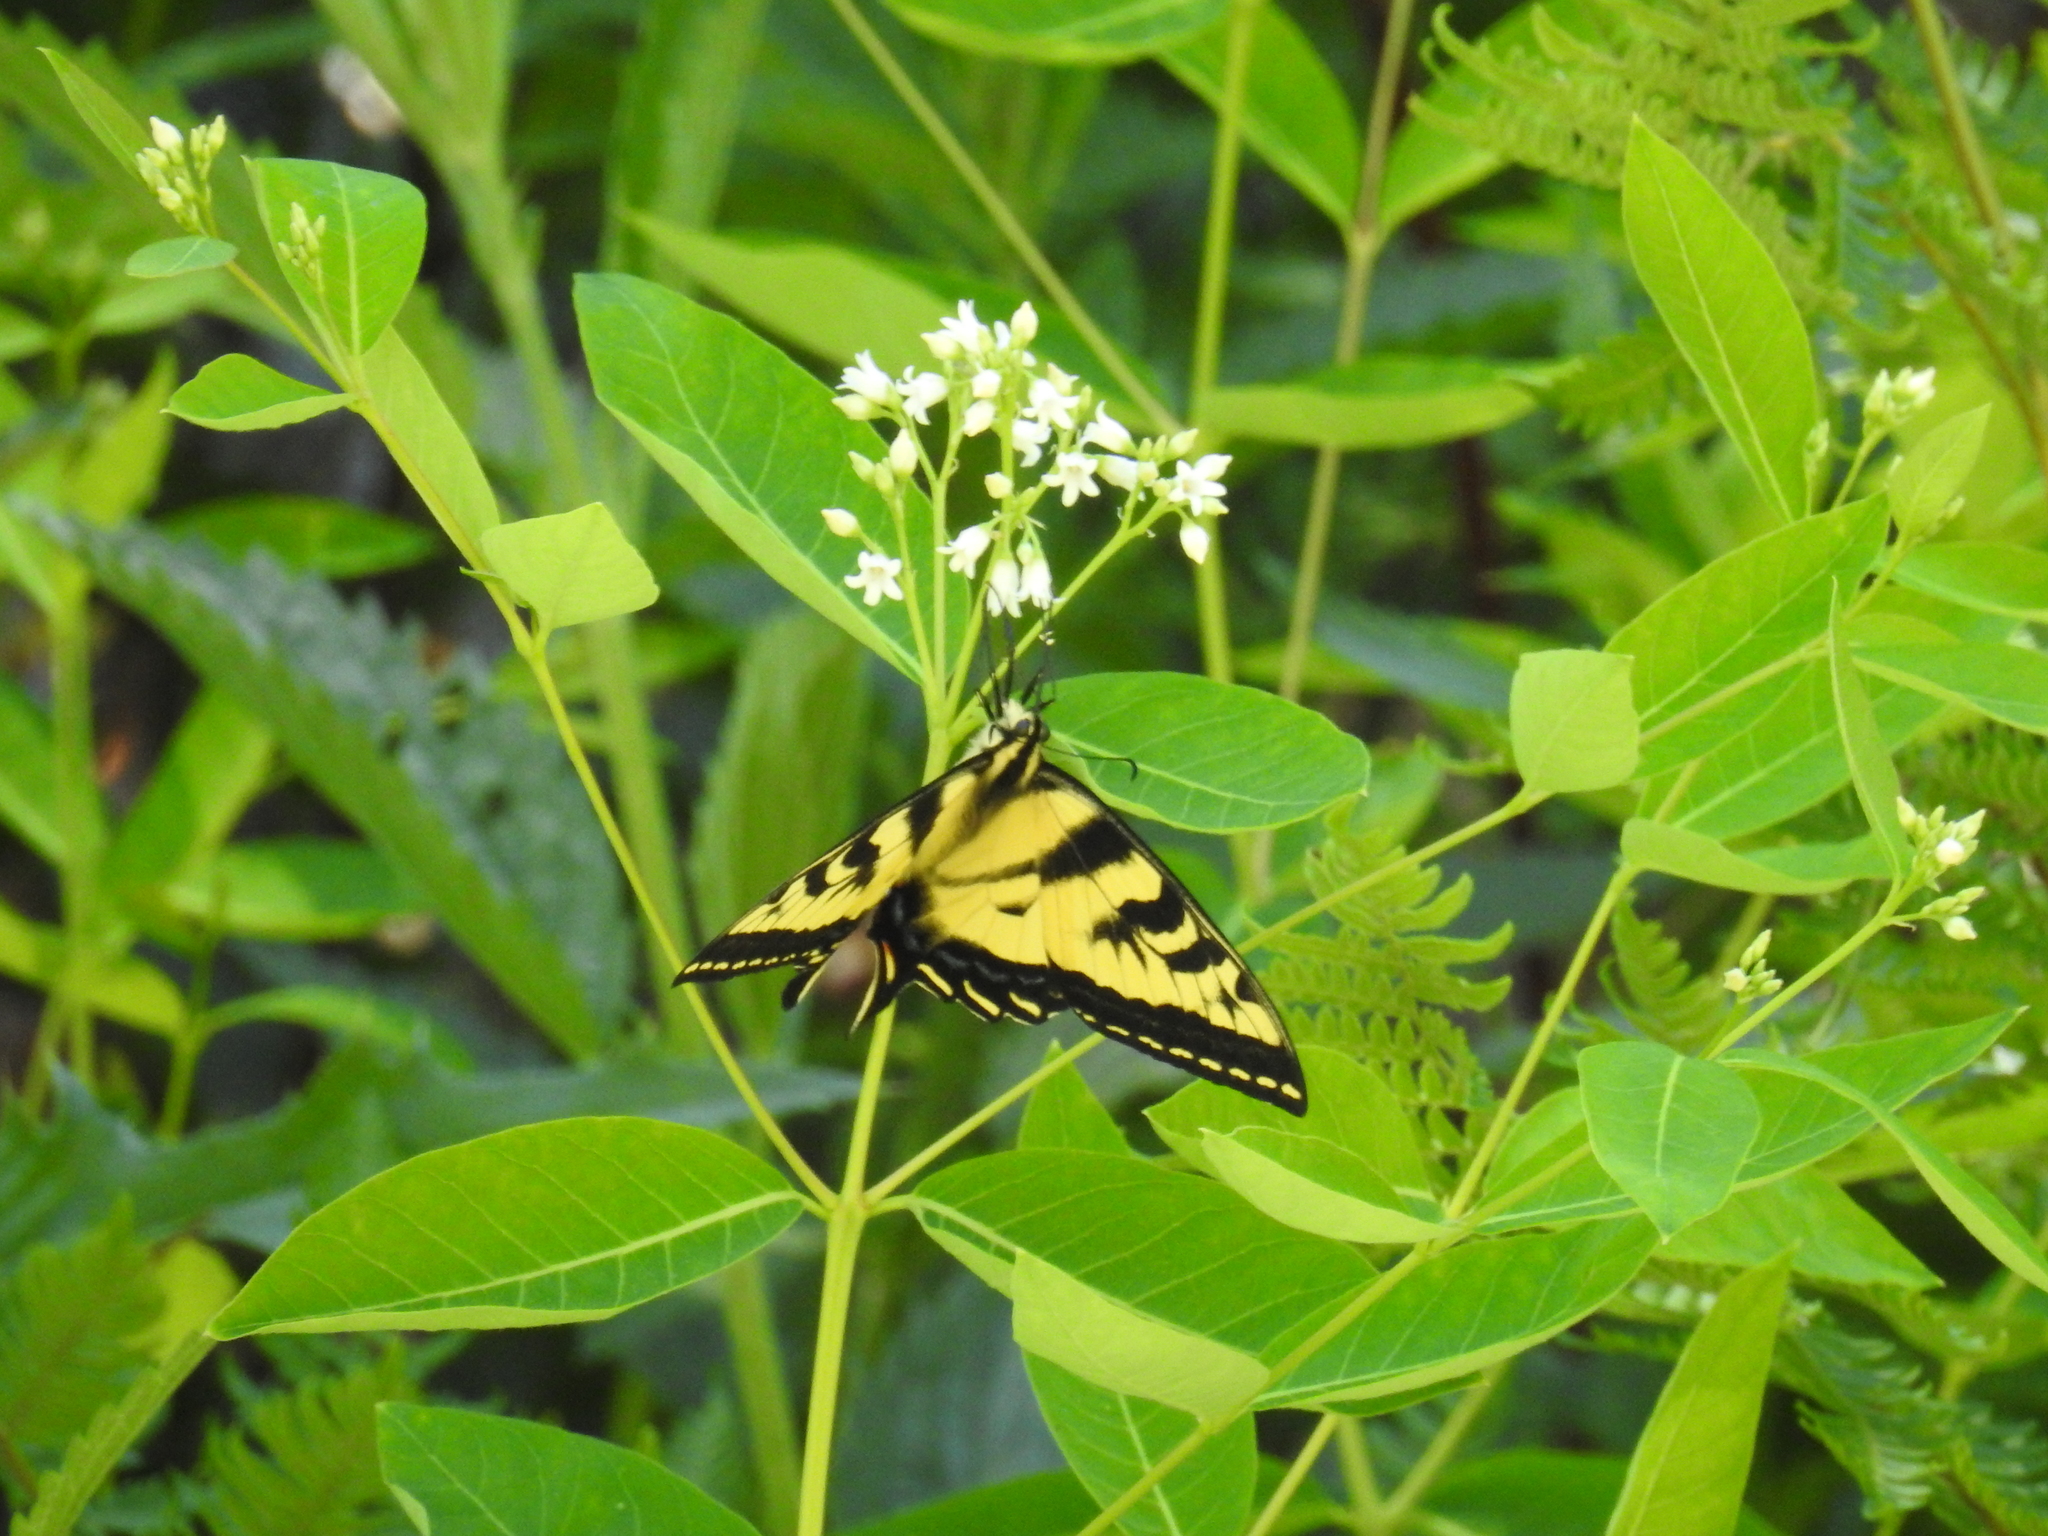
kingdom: Animalia
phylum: Arthropoda
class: Insecta
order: Lepidoptera
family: Papilionidae
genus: Papilio
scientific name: Papilio rutulus
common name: Western tiger swallowtail
